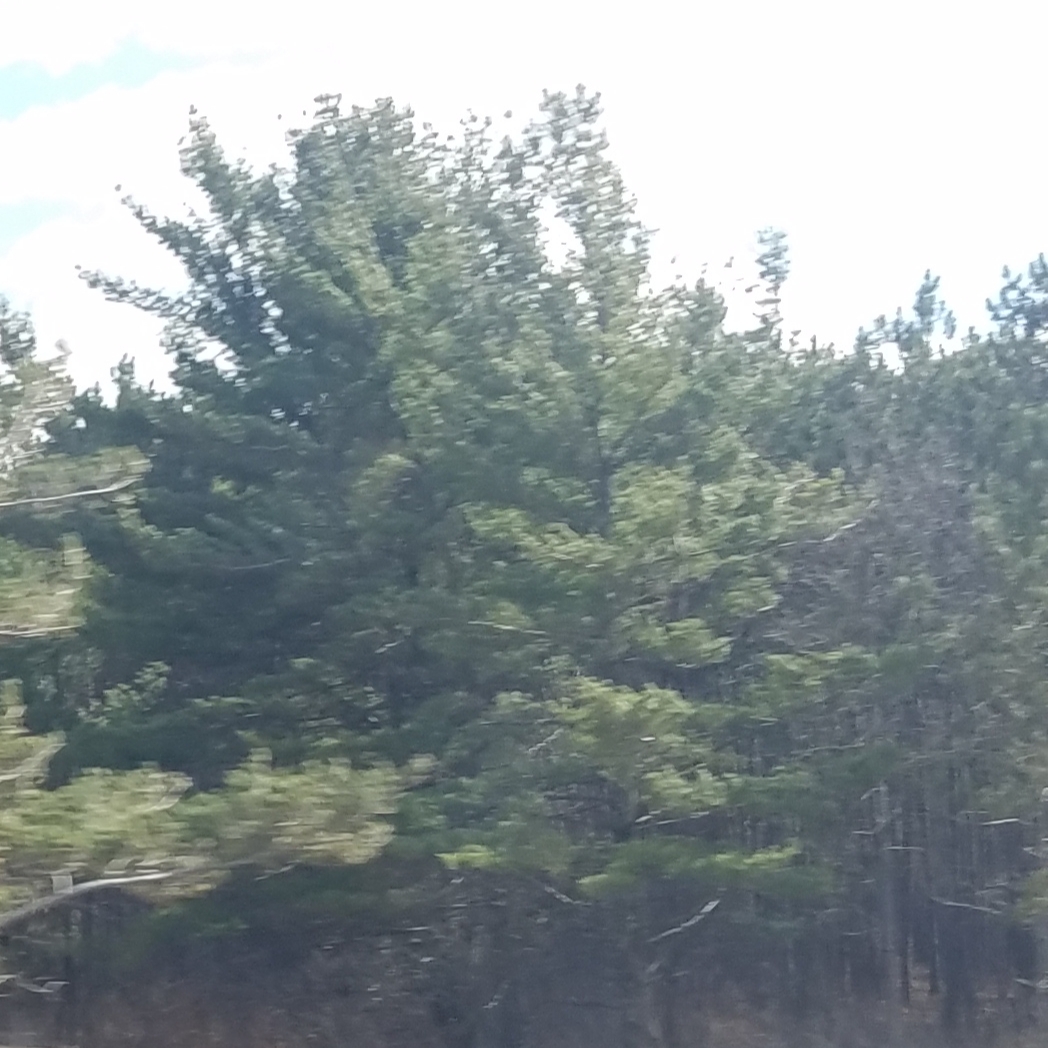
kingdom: Plantae
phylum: Tracheophyta
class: Pinopsida
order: Pinales
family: Pinaceae
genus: Pinus
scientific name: Pinus strobus
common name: Weymouth pine
